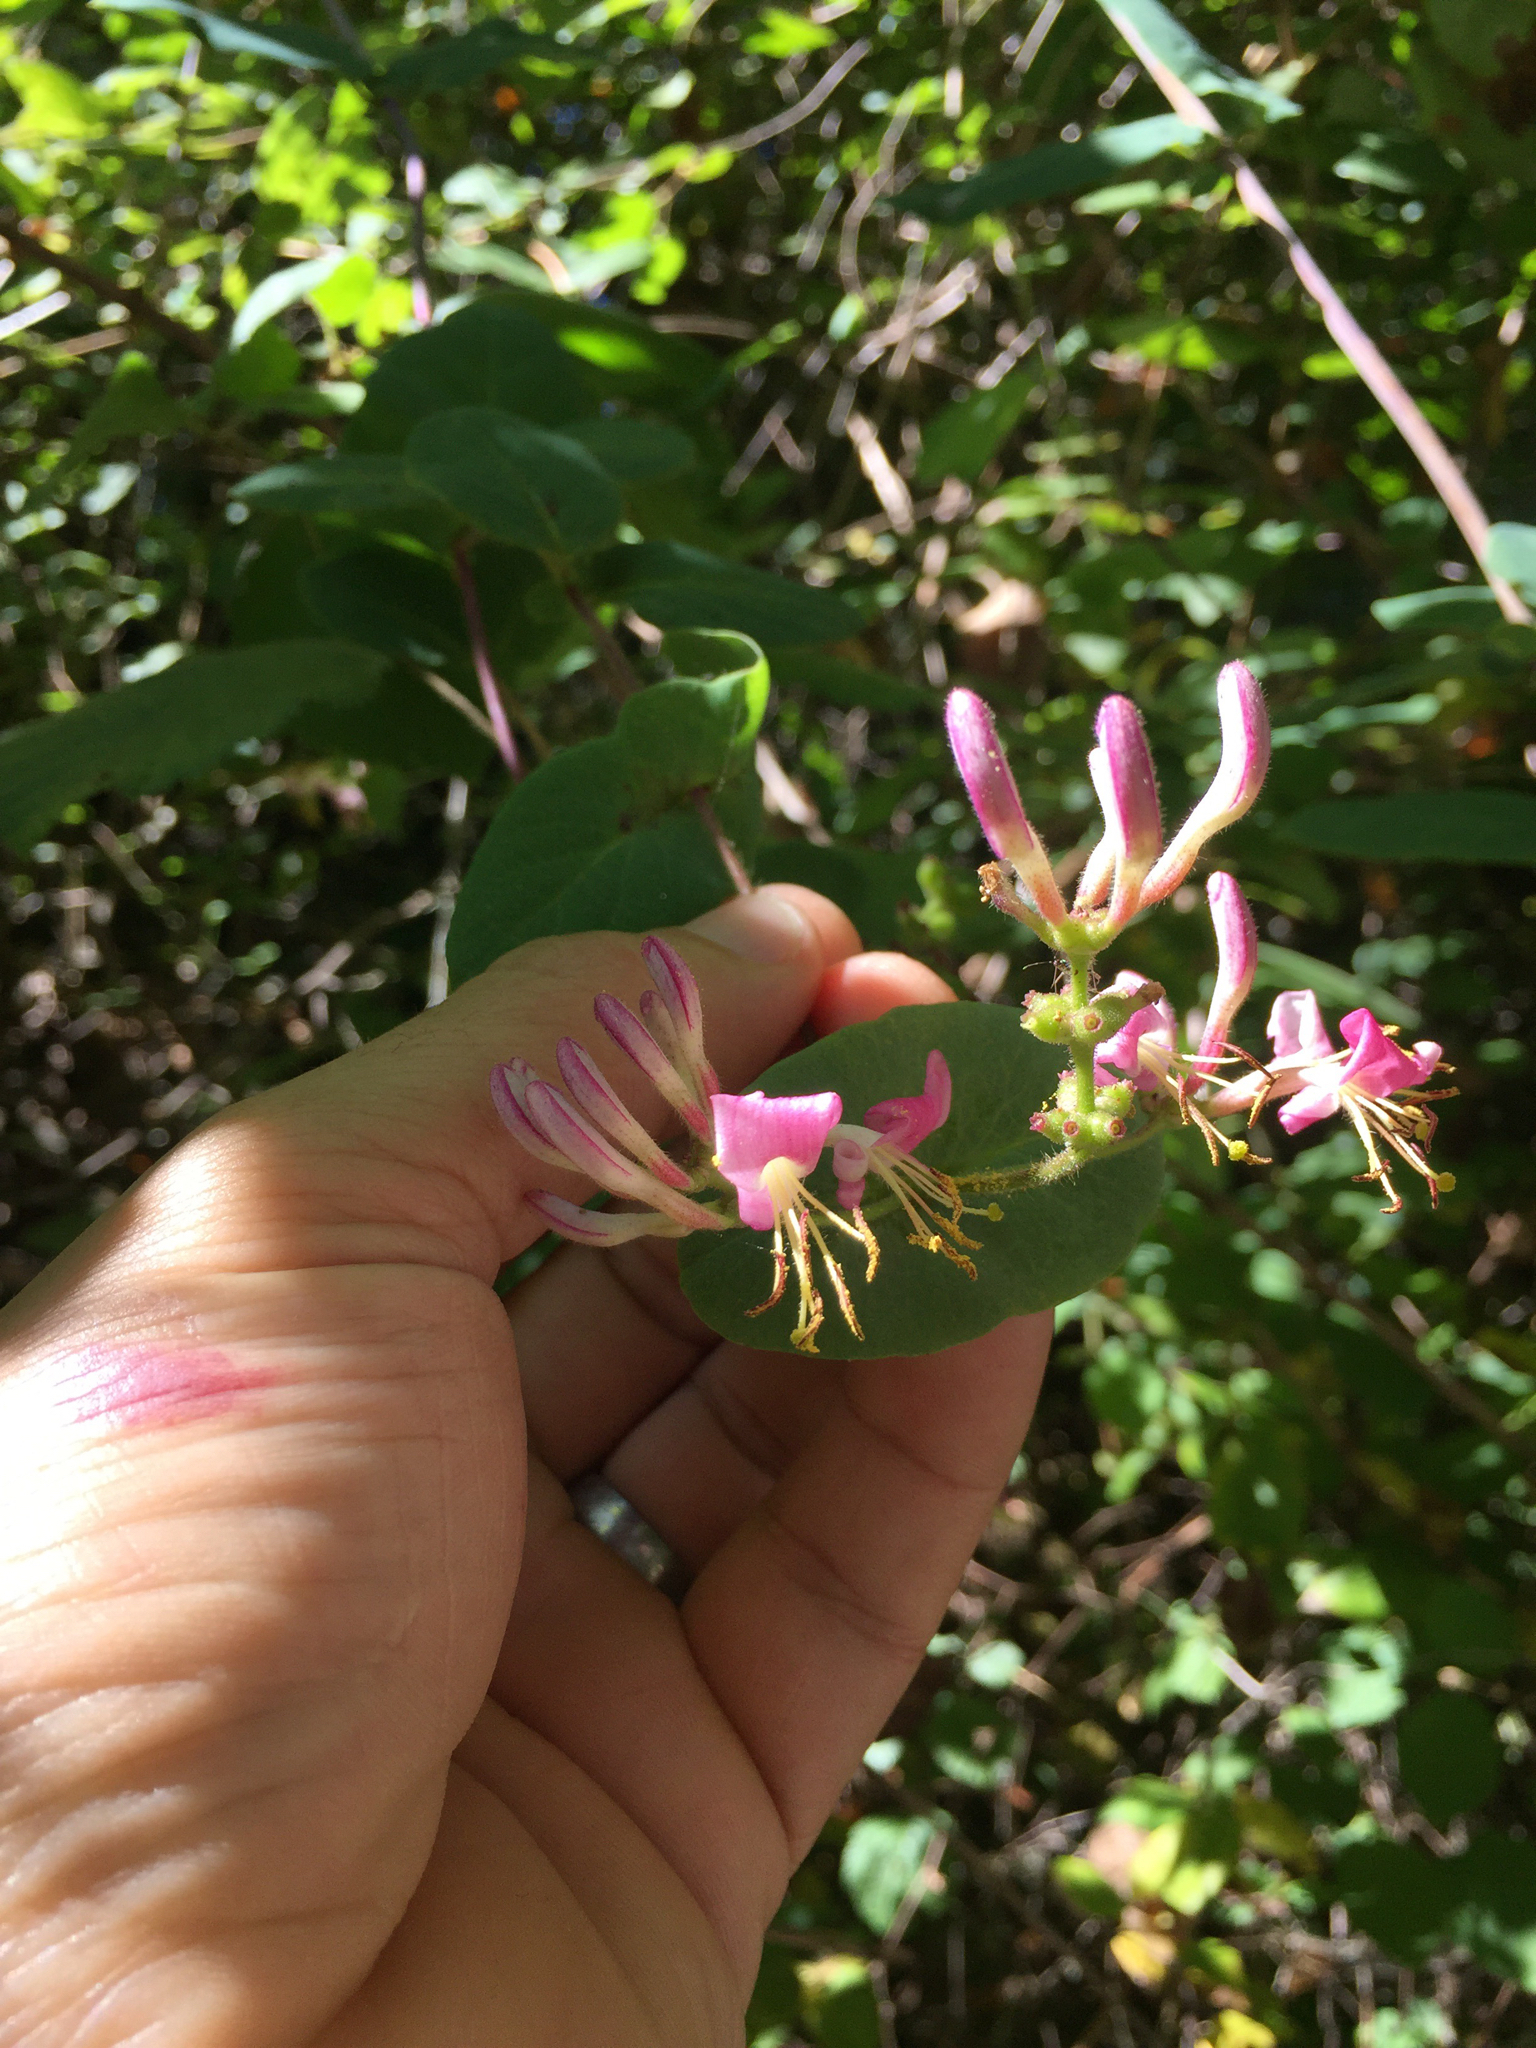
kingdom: Plantae
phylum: Tracheophyta
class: Magnoliopsida
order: Dipsacales
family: Caprifoliaceae
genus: Lonicera
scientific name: Lonicera hispidula
